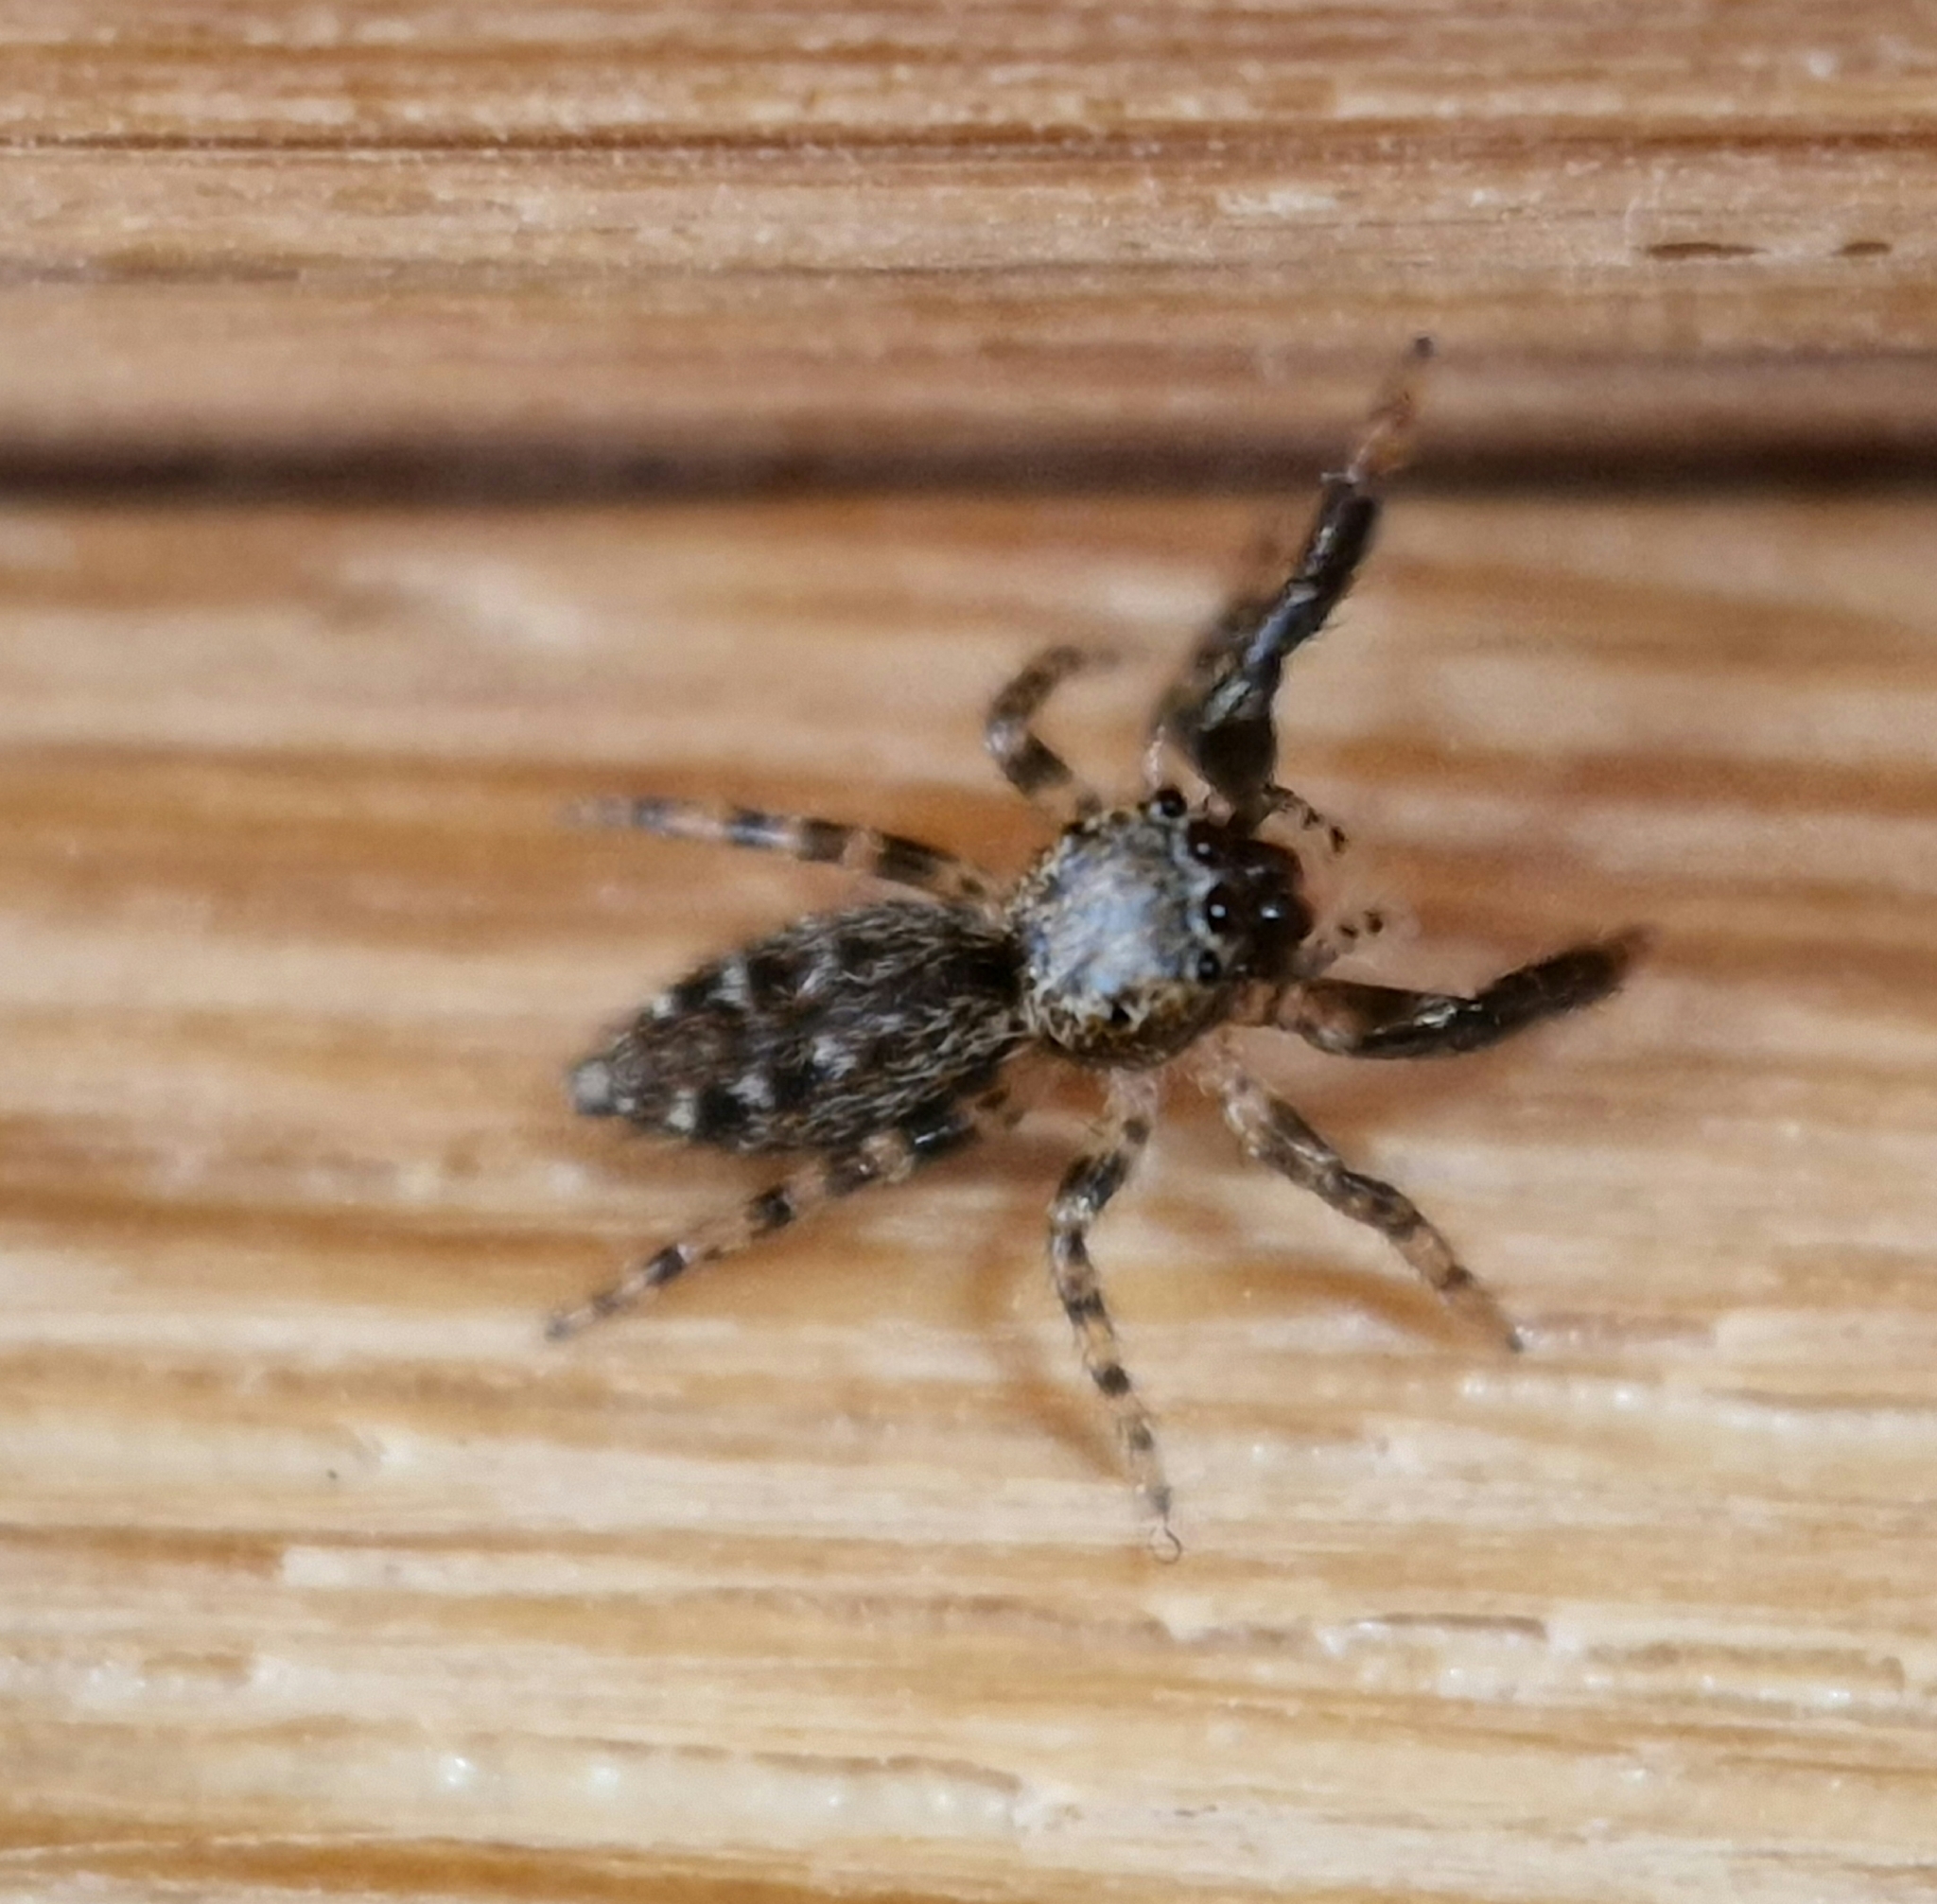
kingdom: Animalia
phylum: Arthropoda
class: Arachnida
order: Araneae
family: Salticidae
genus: Marpissa
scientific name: Marpissa muscosa
